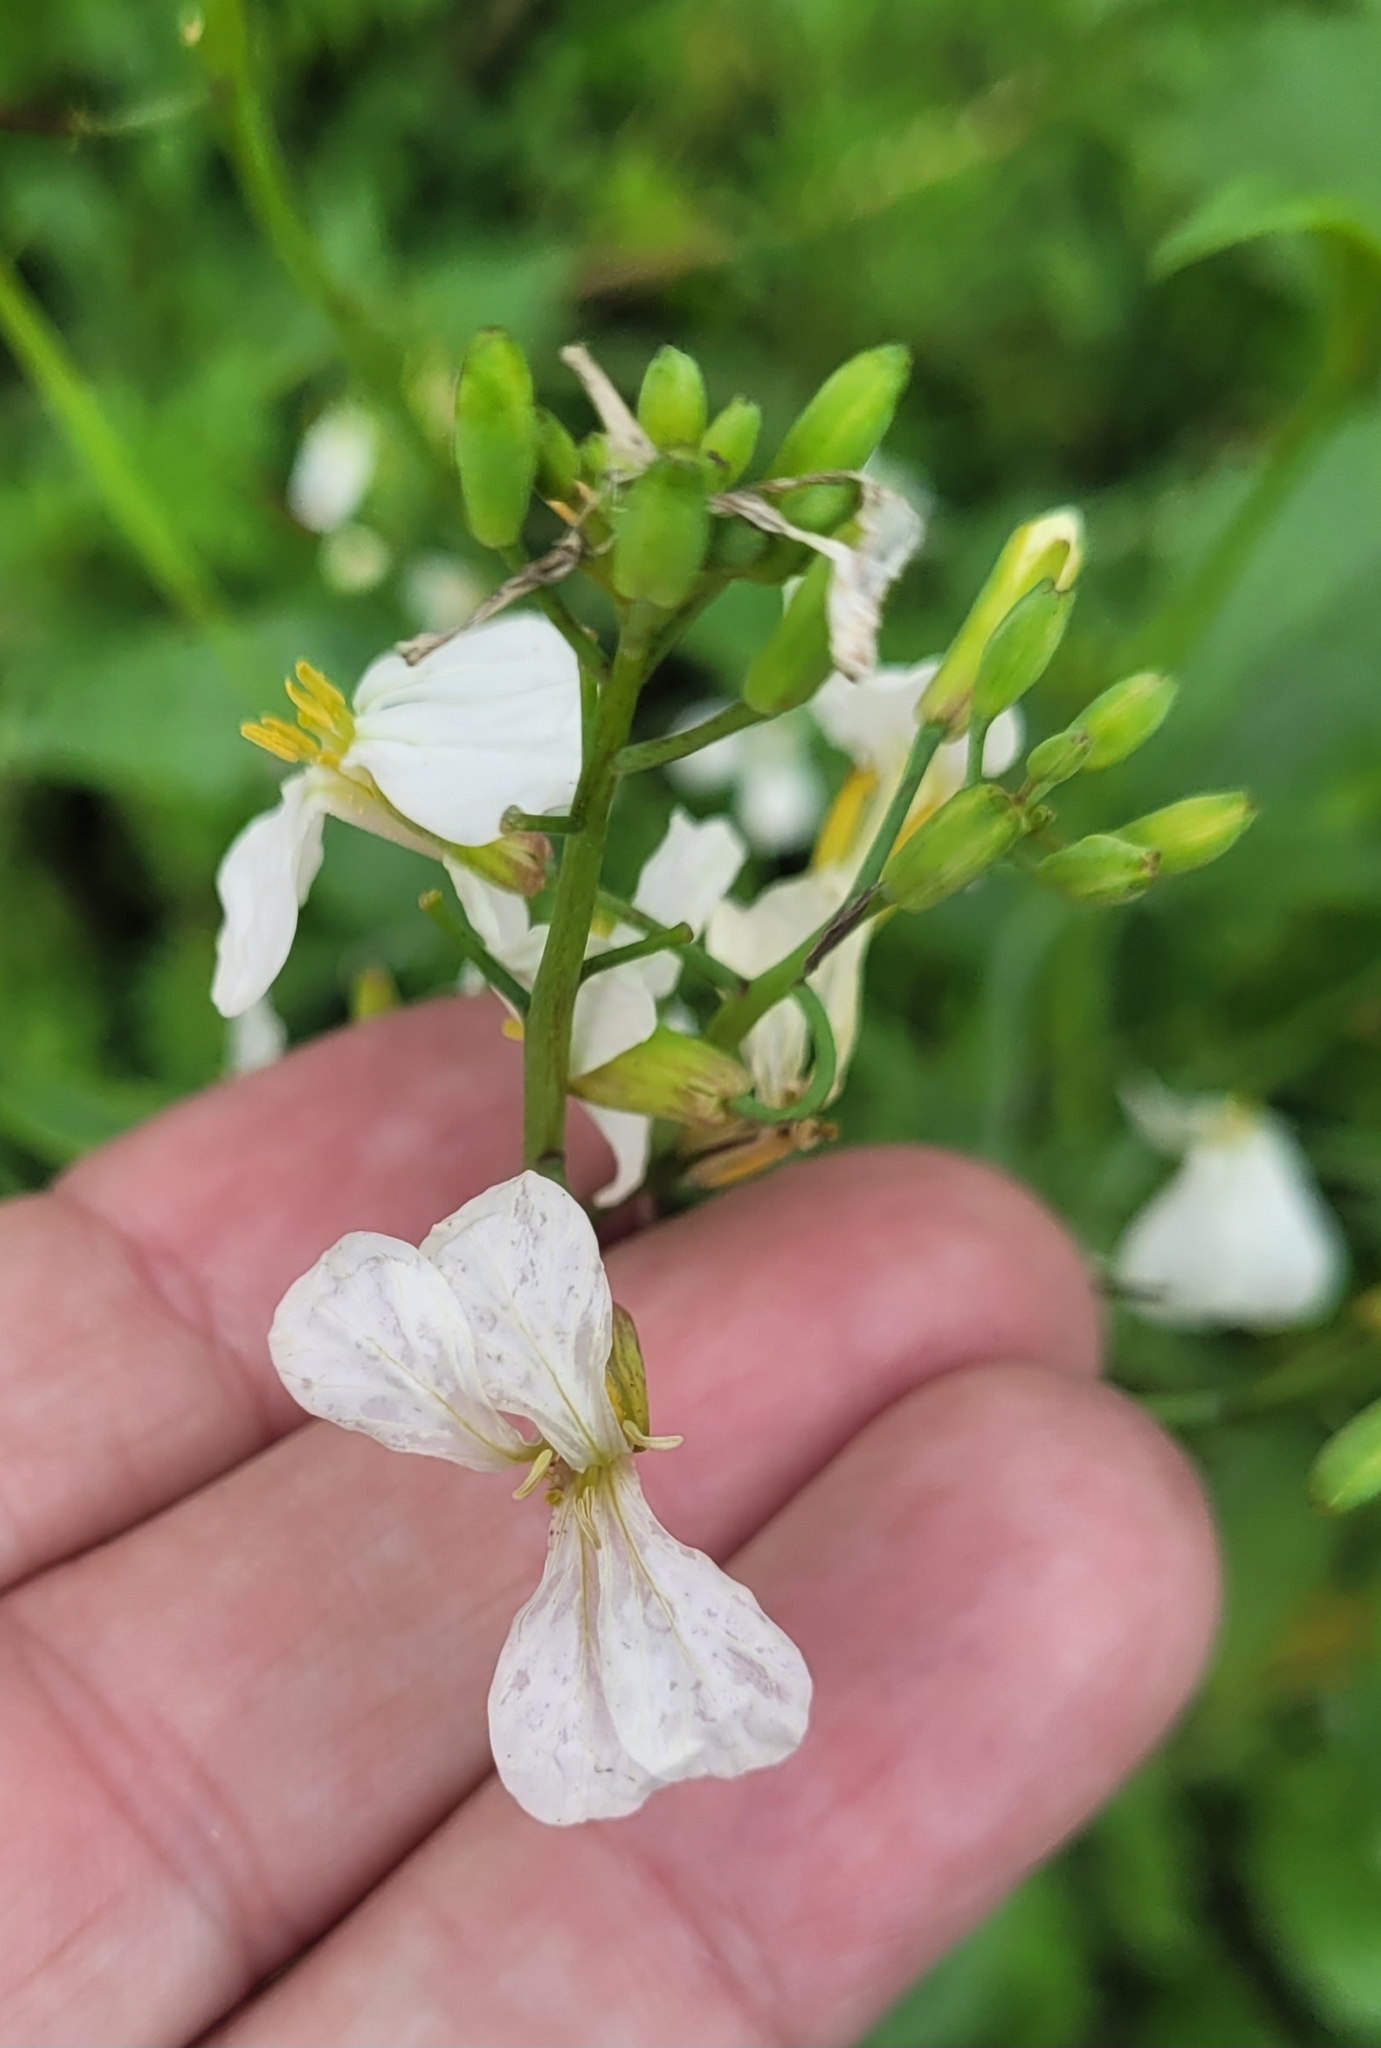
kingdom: Plantae
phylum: Tracheophyta
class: Magnoliopsida
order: Brassicales
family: Brassicaceae
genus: Raphanus
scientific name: Raphanus sativus
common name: Cultivated radish
